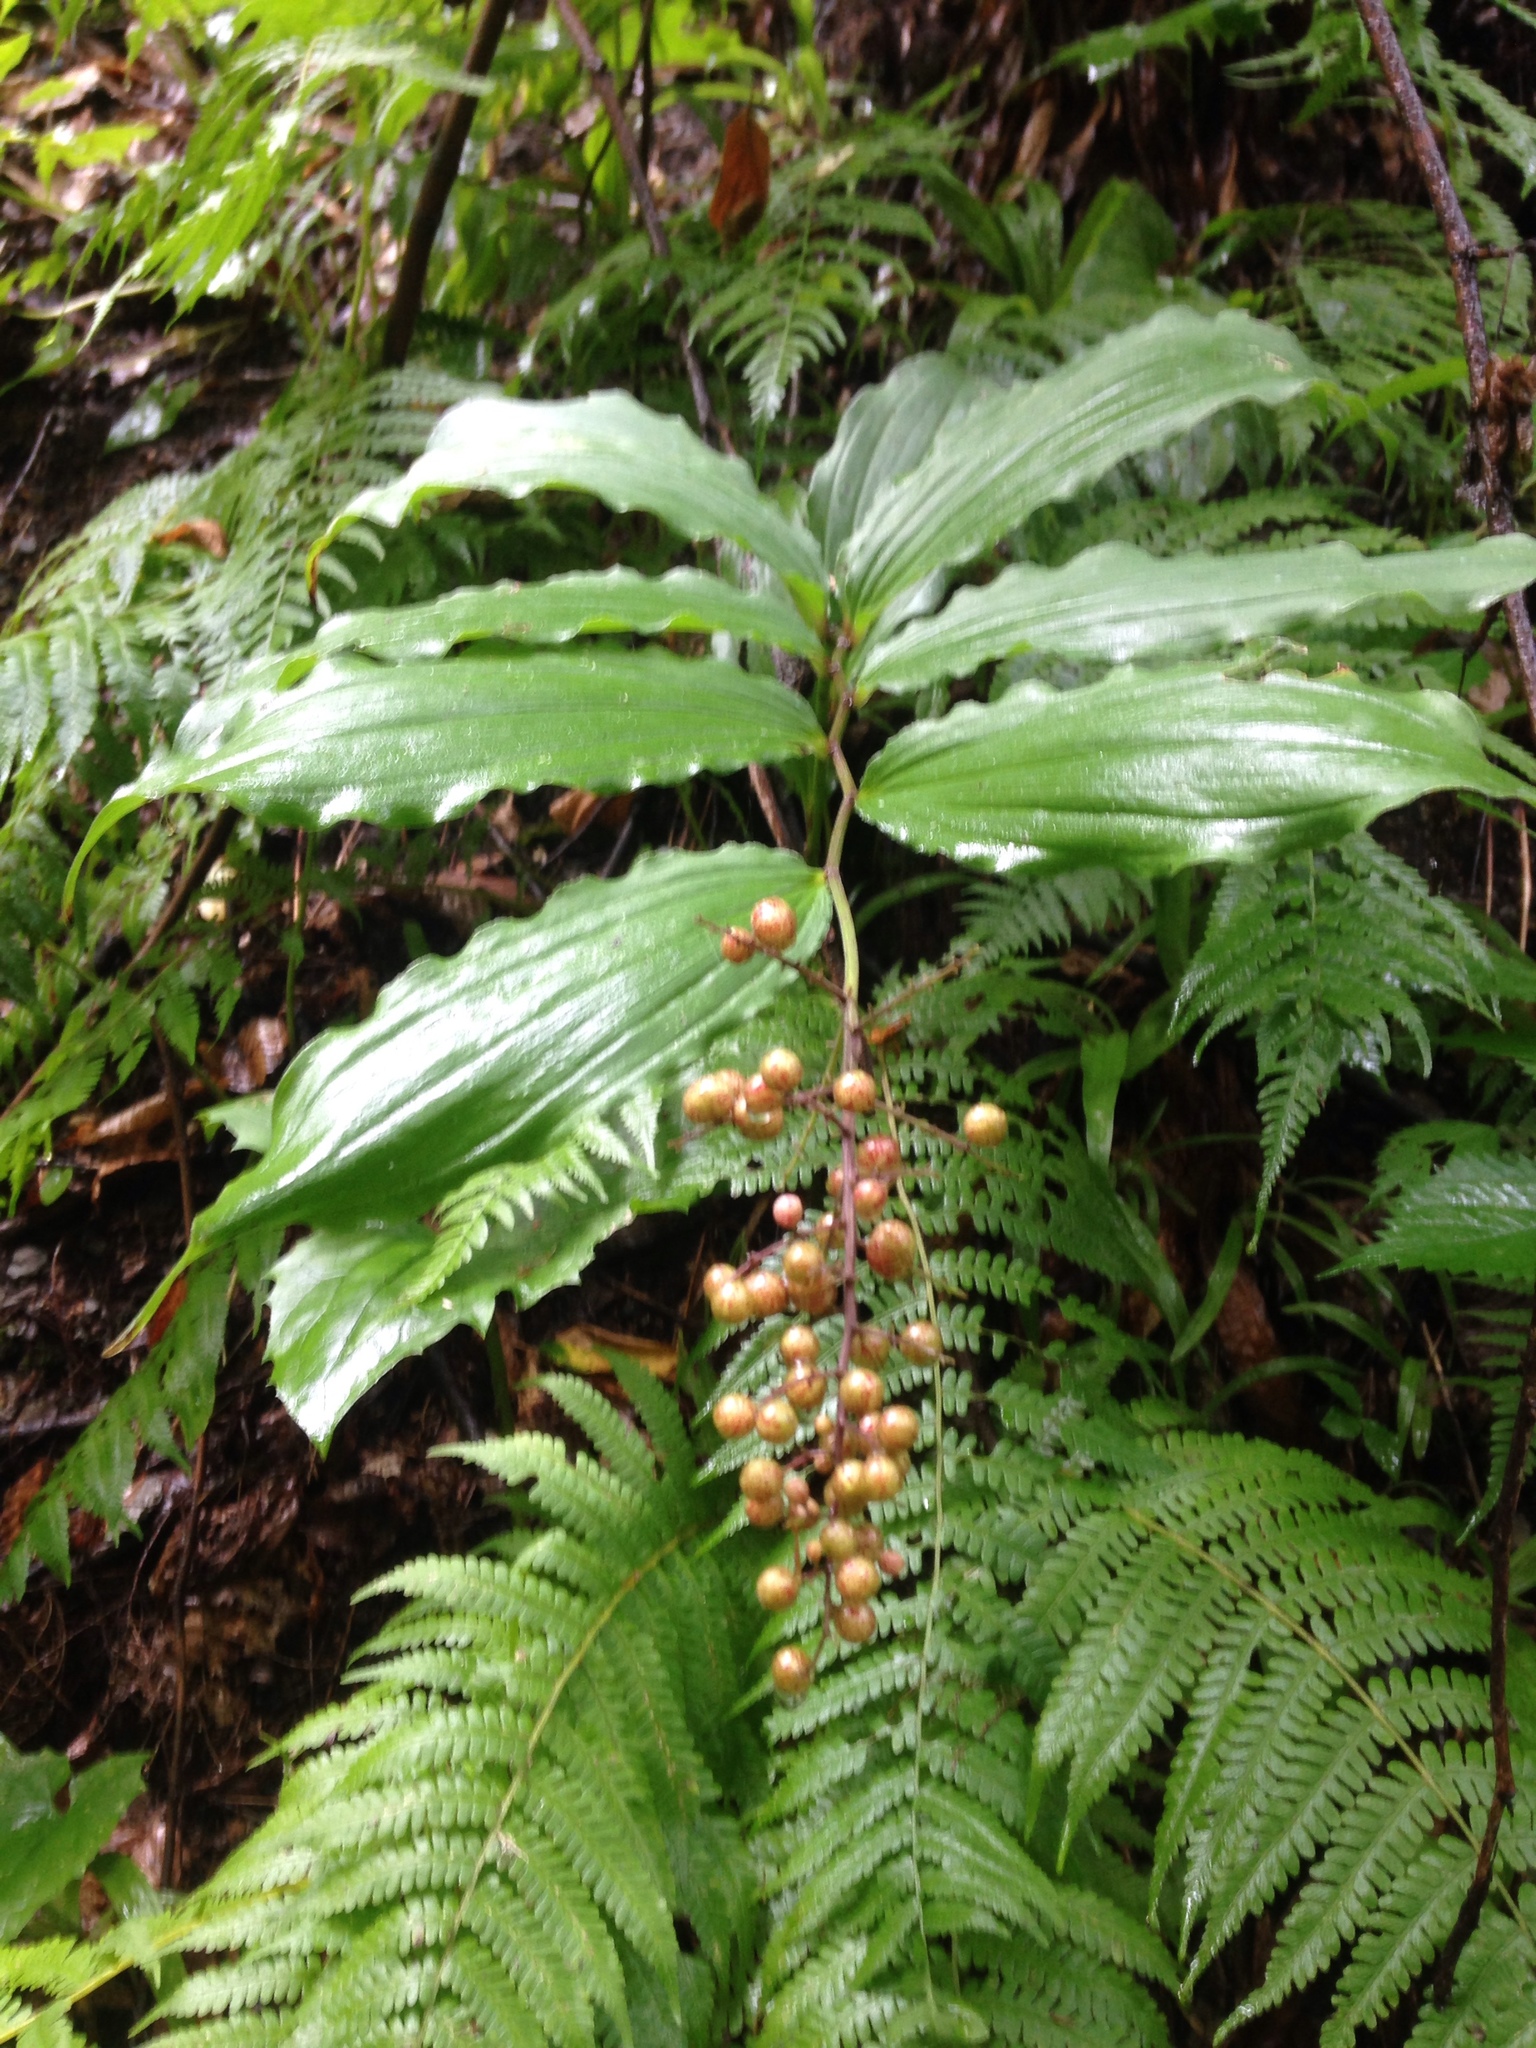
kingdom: Plantae
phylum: Tracheophyta
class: Liliopsida
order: Asparagales
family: Asparagaceae
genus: Maianthemum
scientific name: Maianthemum racemosum
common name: False spikenard
